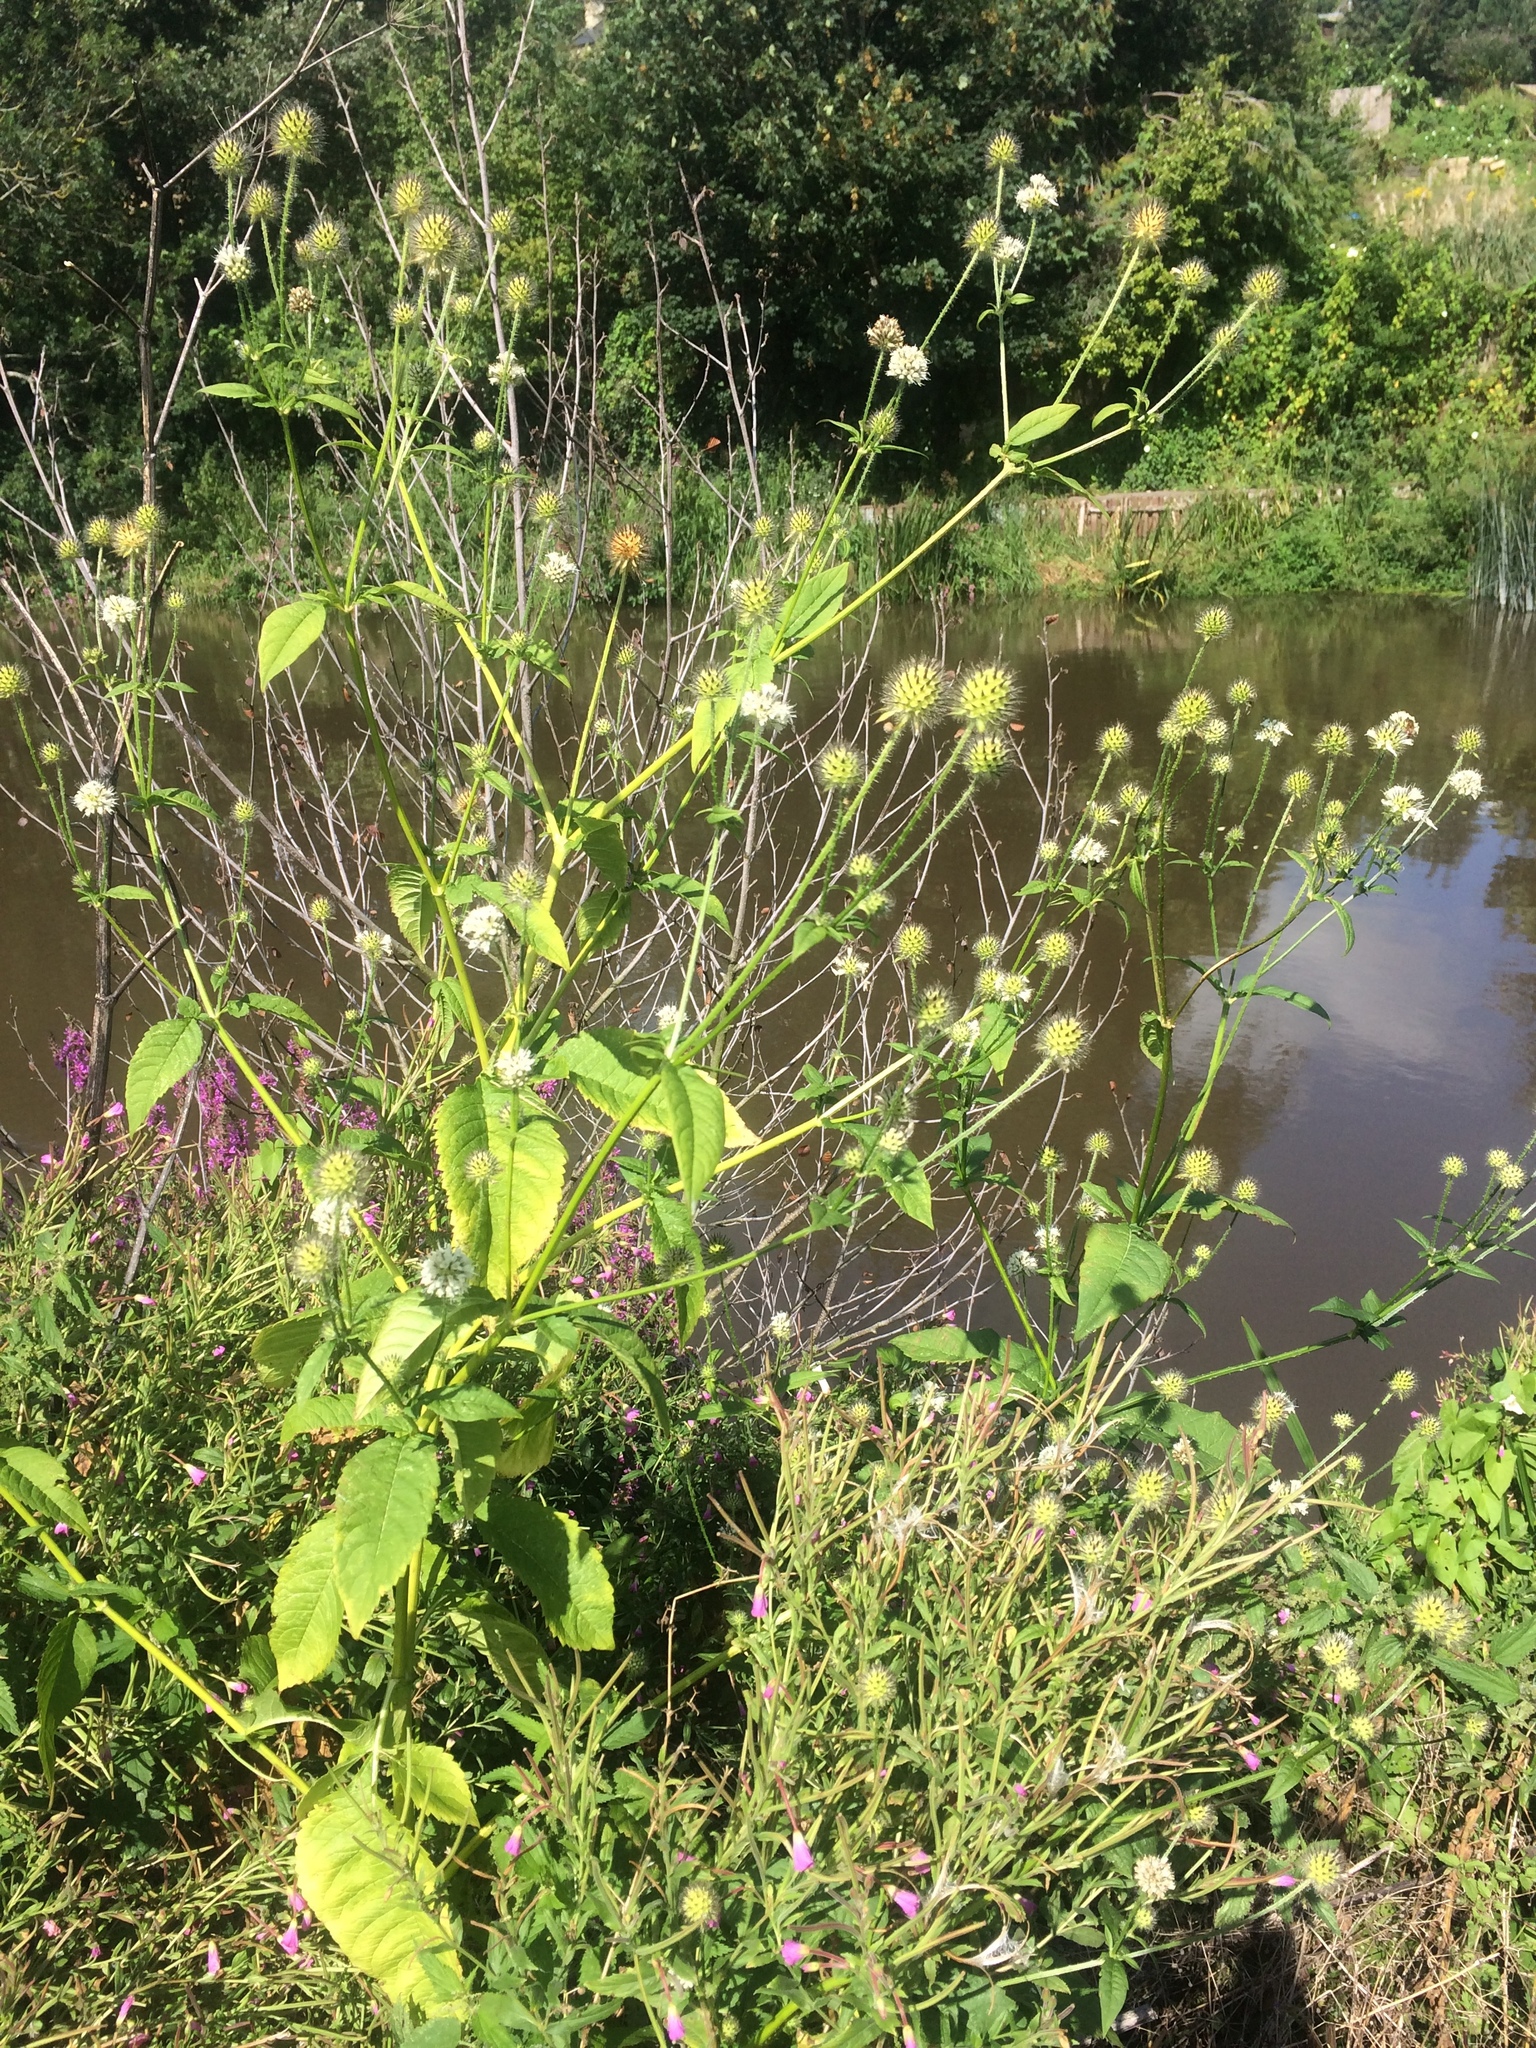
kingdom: Plantae
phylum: Tracheophyta
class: Magnoliopsida
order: Dipsacales
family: Caprifoliaceae
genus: Dipsacus
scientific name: Dipsacus pilosus
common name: Small teasel
